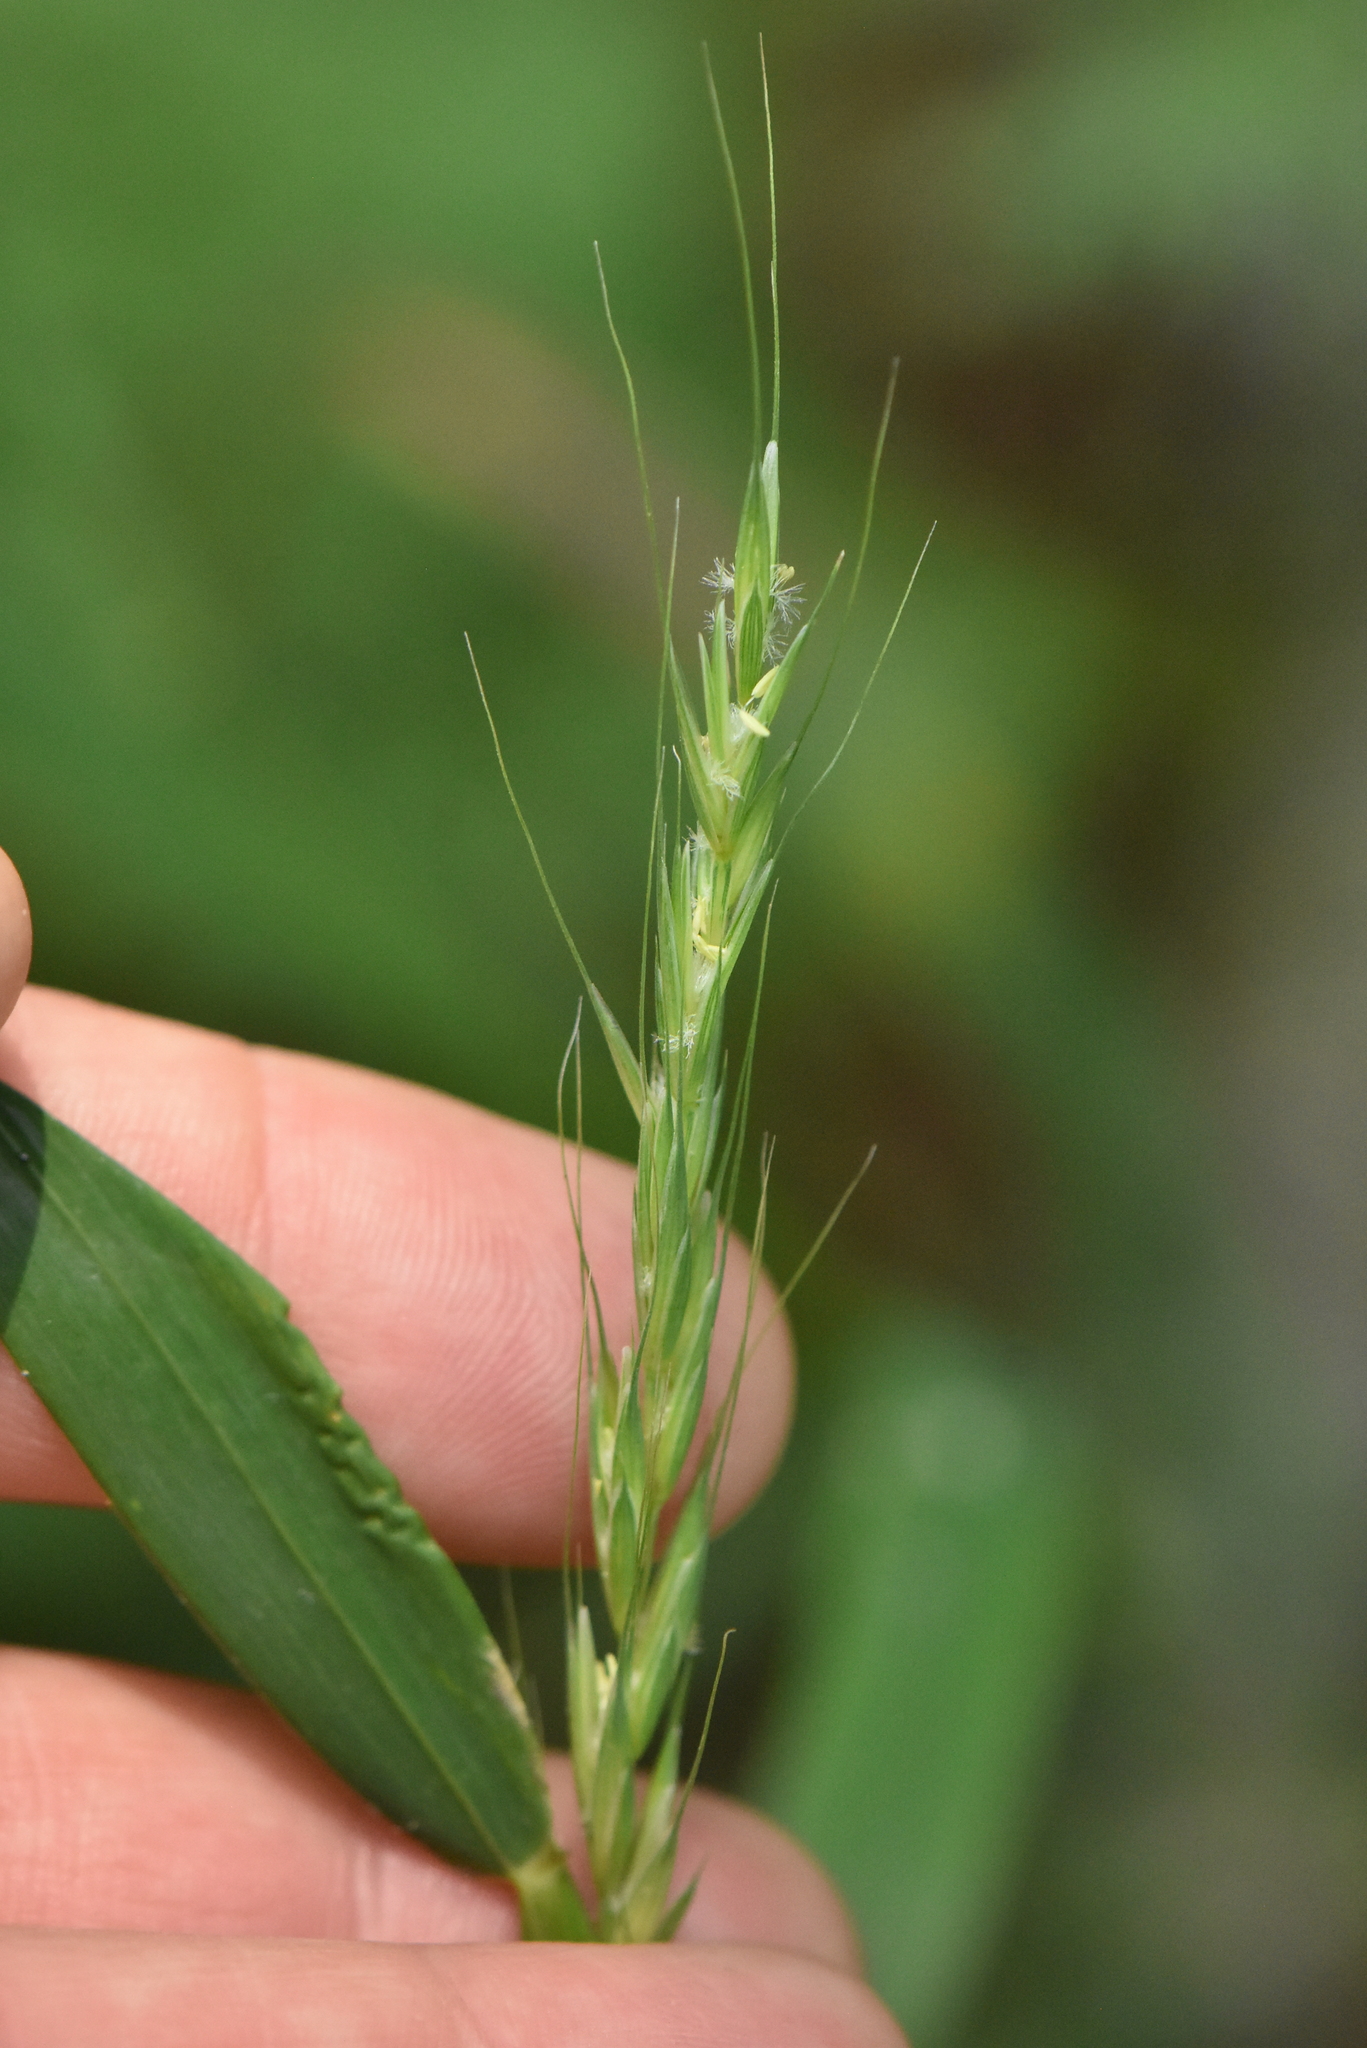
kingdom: Plantae
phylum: Tracheophyta
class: Liliopsida
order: Poales
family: Poaceae
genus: Elymus
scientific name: Elymus caninus
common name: Bearded couch
